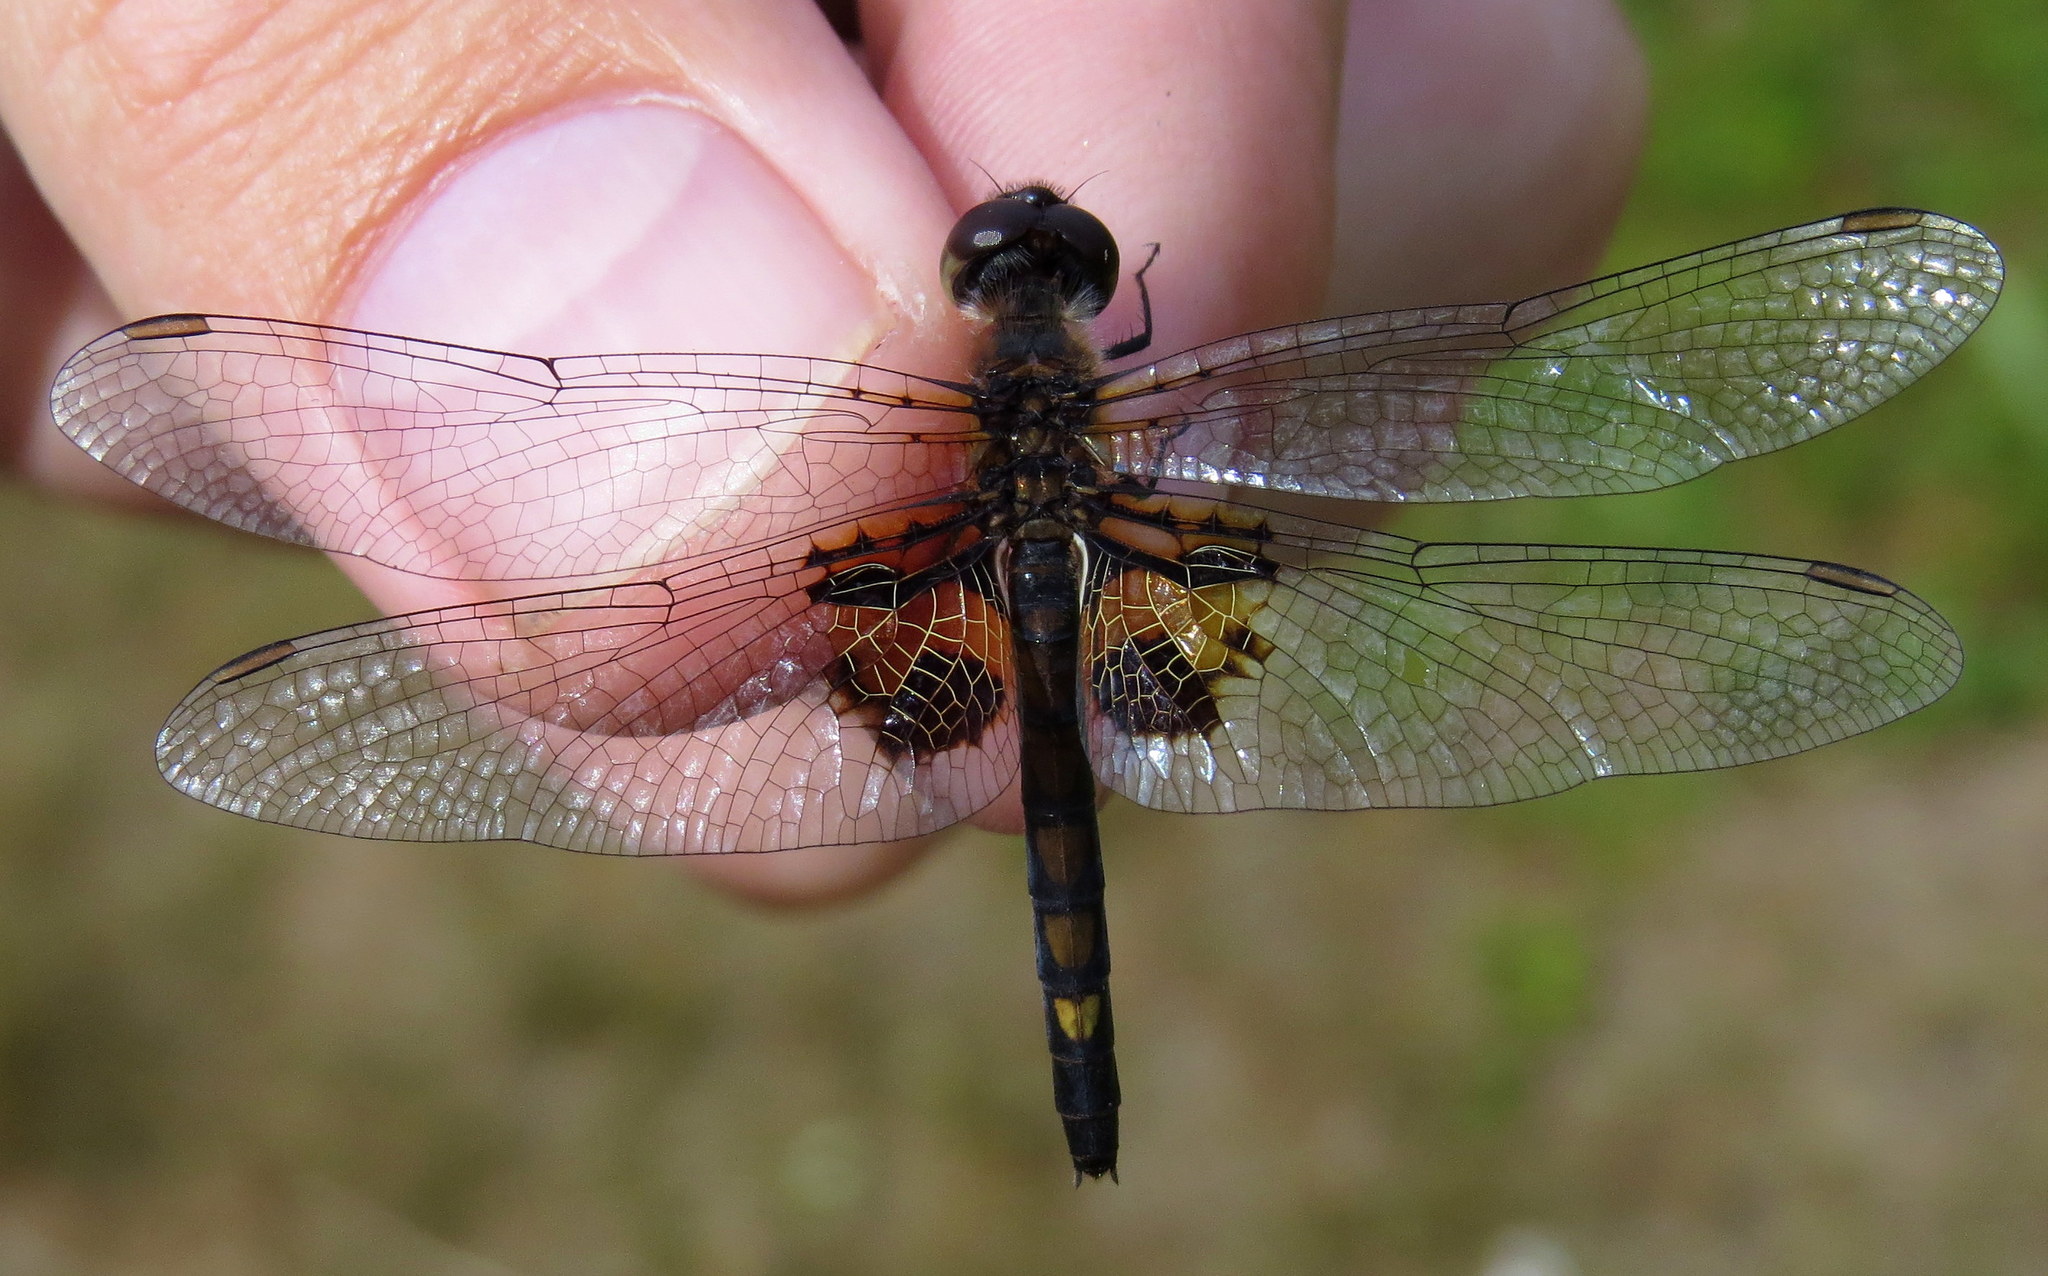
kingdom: Animalia
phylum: Arthropoda
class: Insecta
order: Odonata
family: Libellulidae
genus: Celithemis
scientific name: Celithemis martha
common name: Martha's pennant
